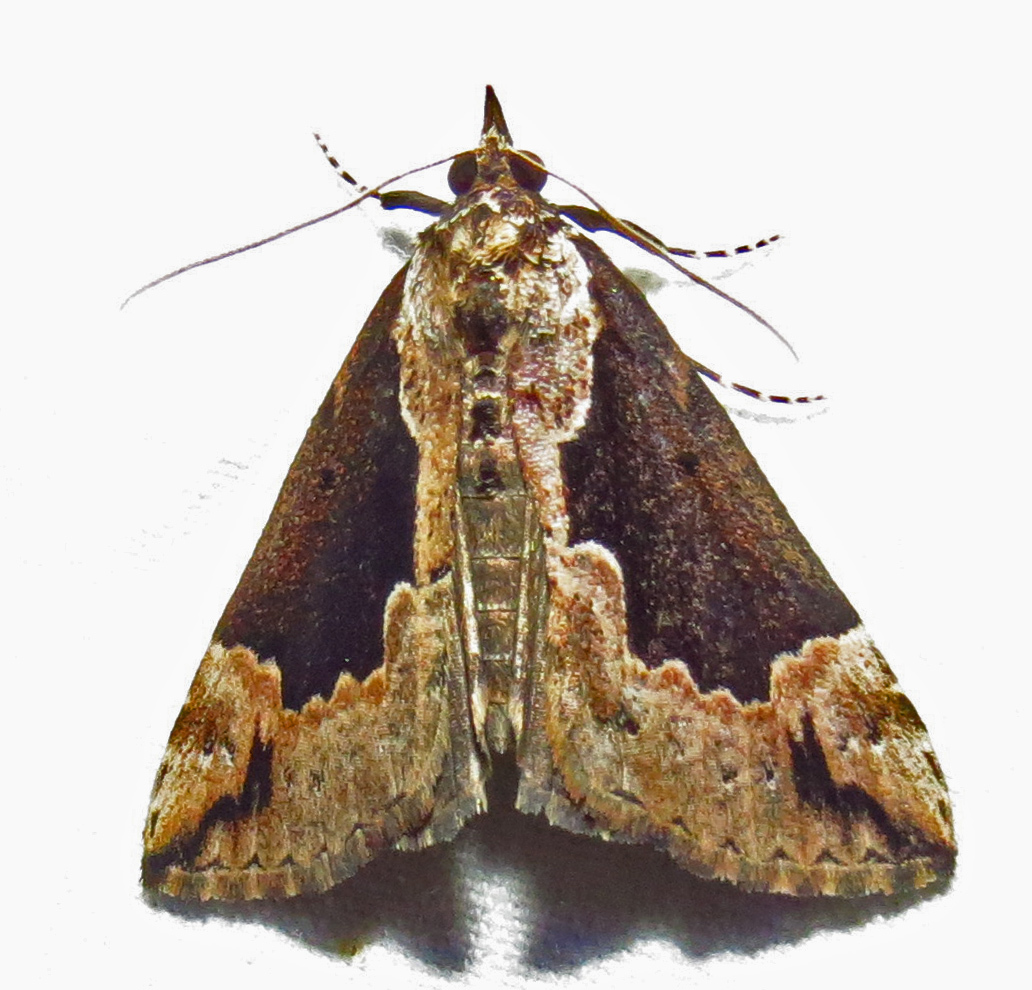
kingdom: Animalia
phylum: Arthropoda
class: Insecta
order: Lepidoptera
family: Erebidae
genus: Hypena
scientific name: Hypena baltimoralis
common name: Baltimore snout
